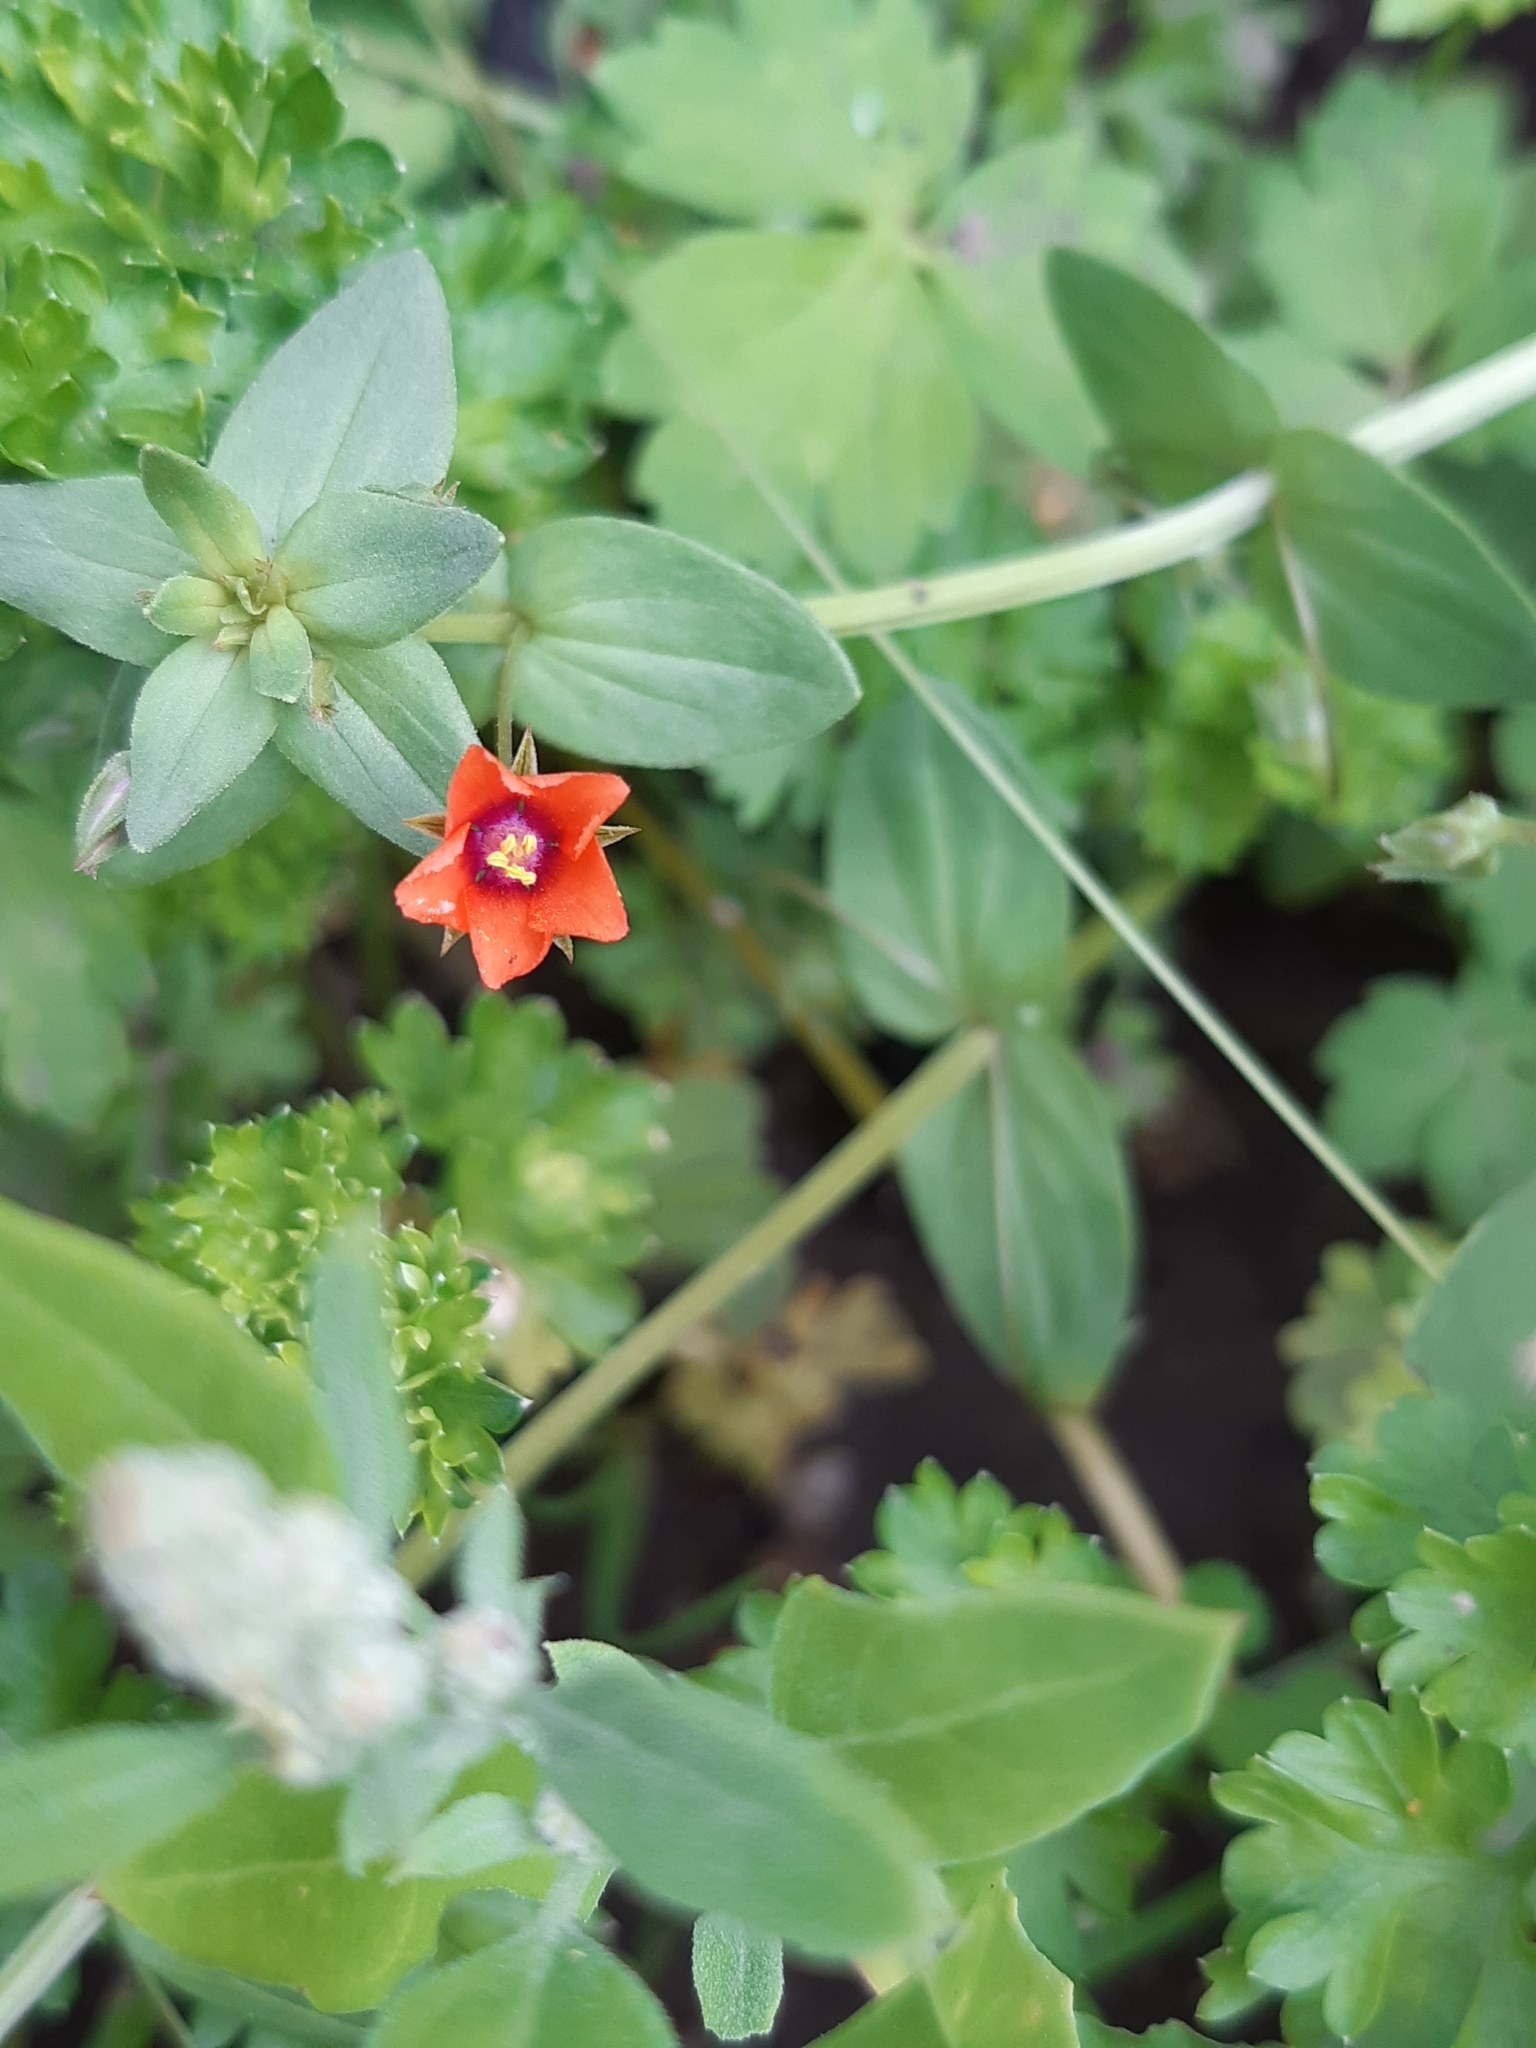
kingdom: Plantae
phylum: Tracheophyta
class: Magnoliopsida
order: Ericales
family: Primulaceae
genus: Lysimachia
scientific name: Lysimachia arvensis
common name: Scarlet pimpernel
